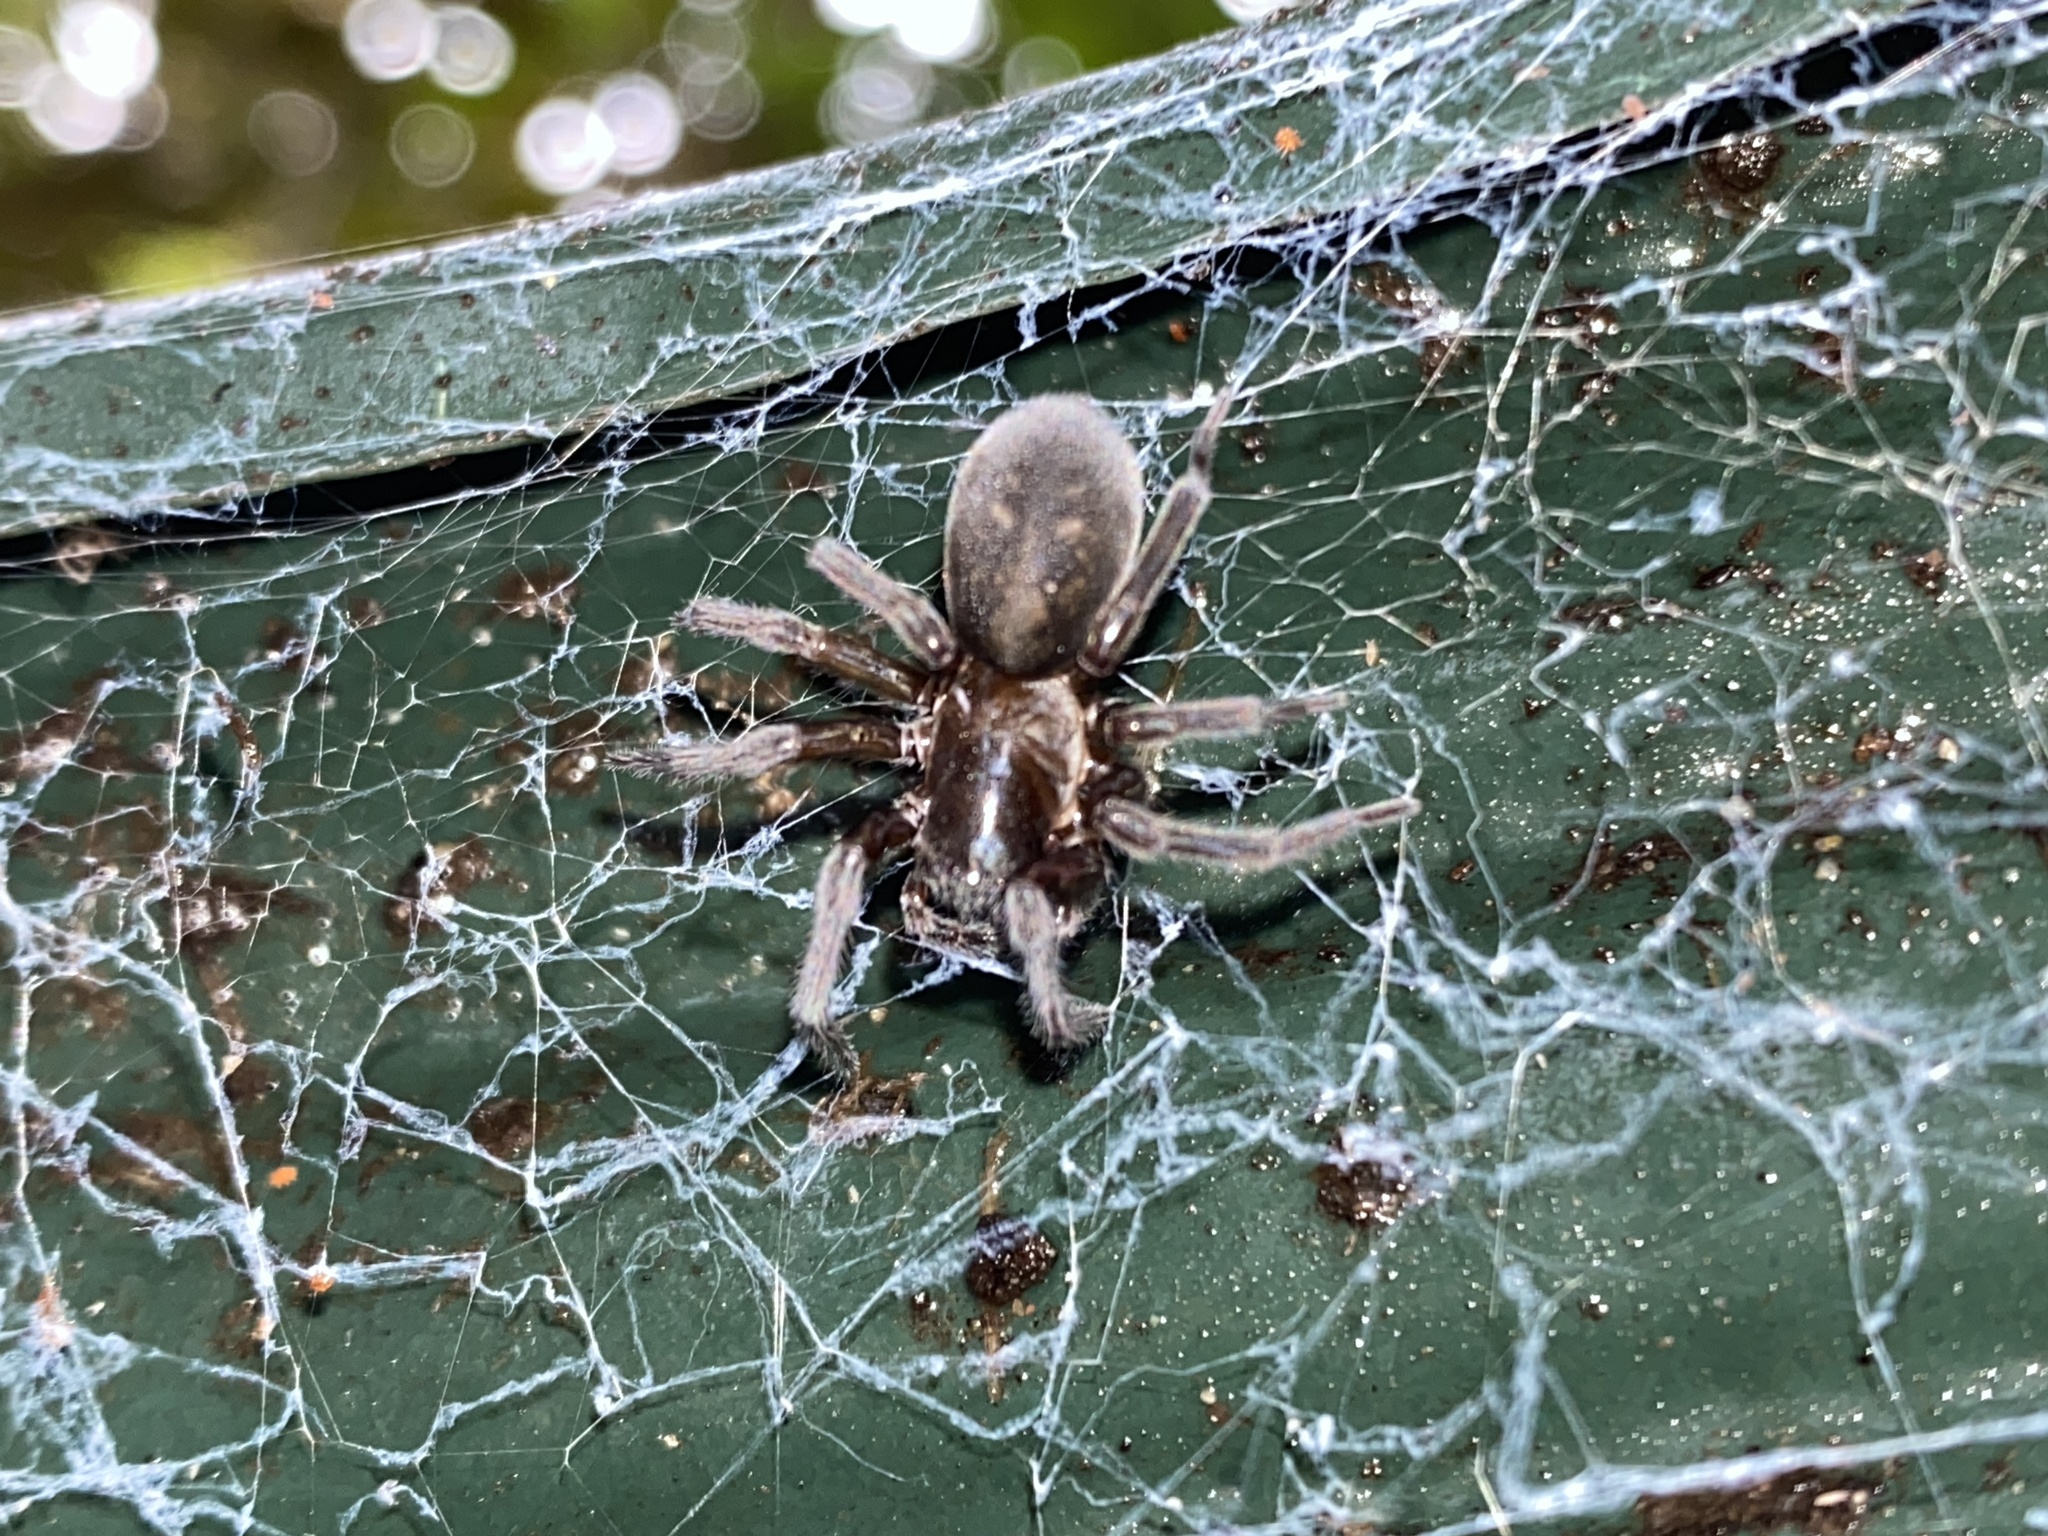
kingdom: Animalia
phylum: Arthropoda
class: Arachnida
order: Araneae
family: Amaurobiidae
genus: Amaurobius
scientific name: Amaurobius ferox
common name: Black laceweaver
